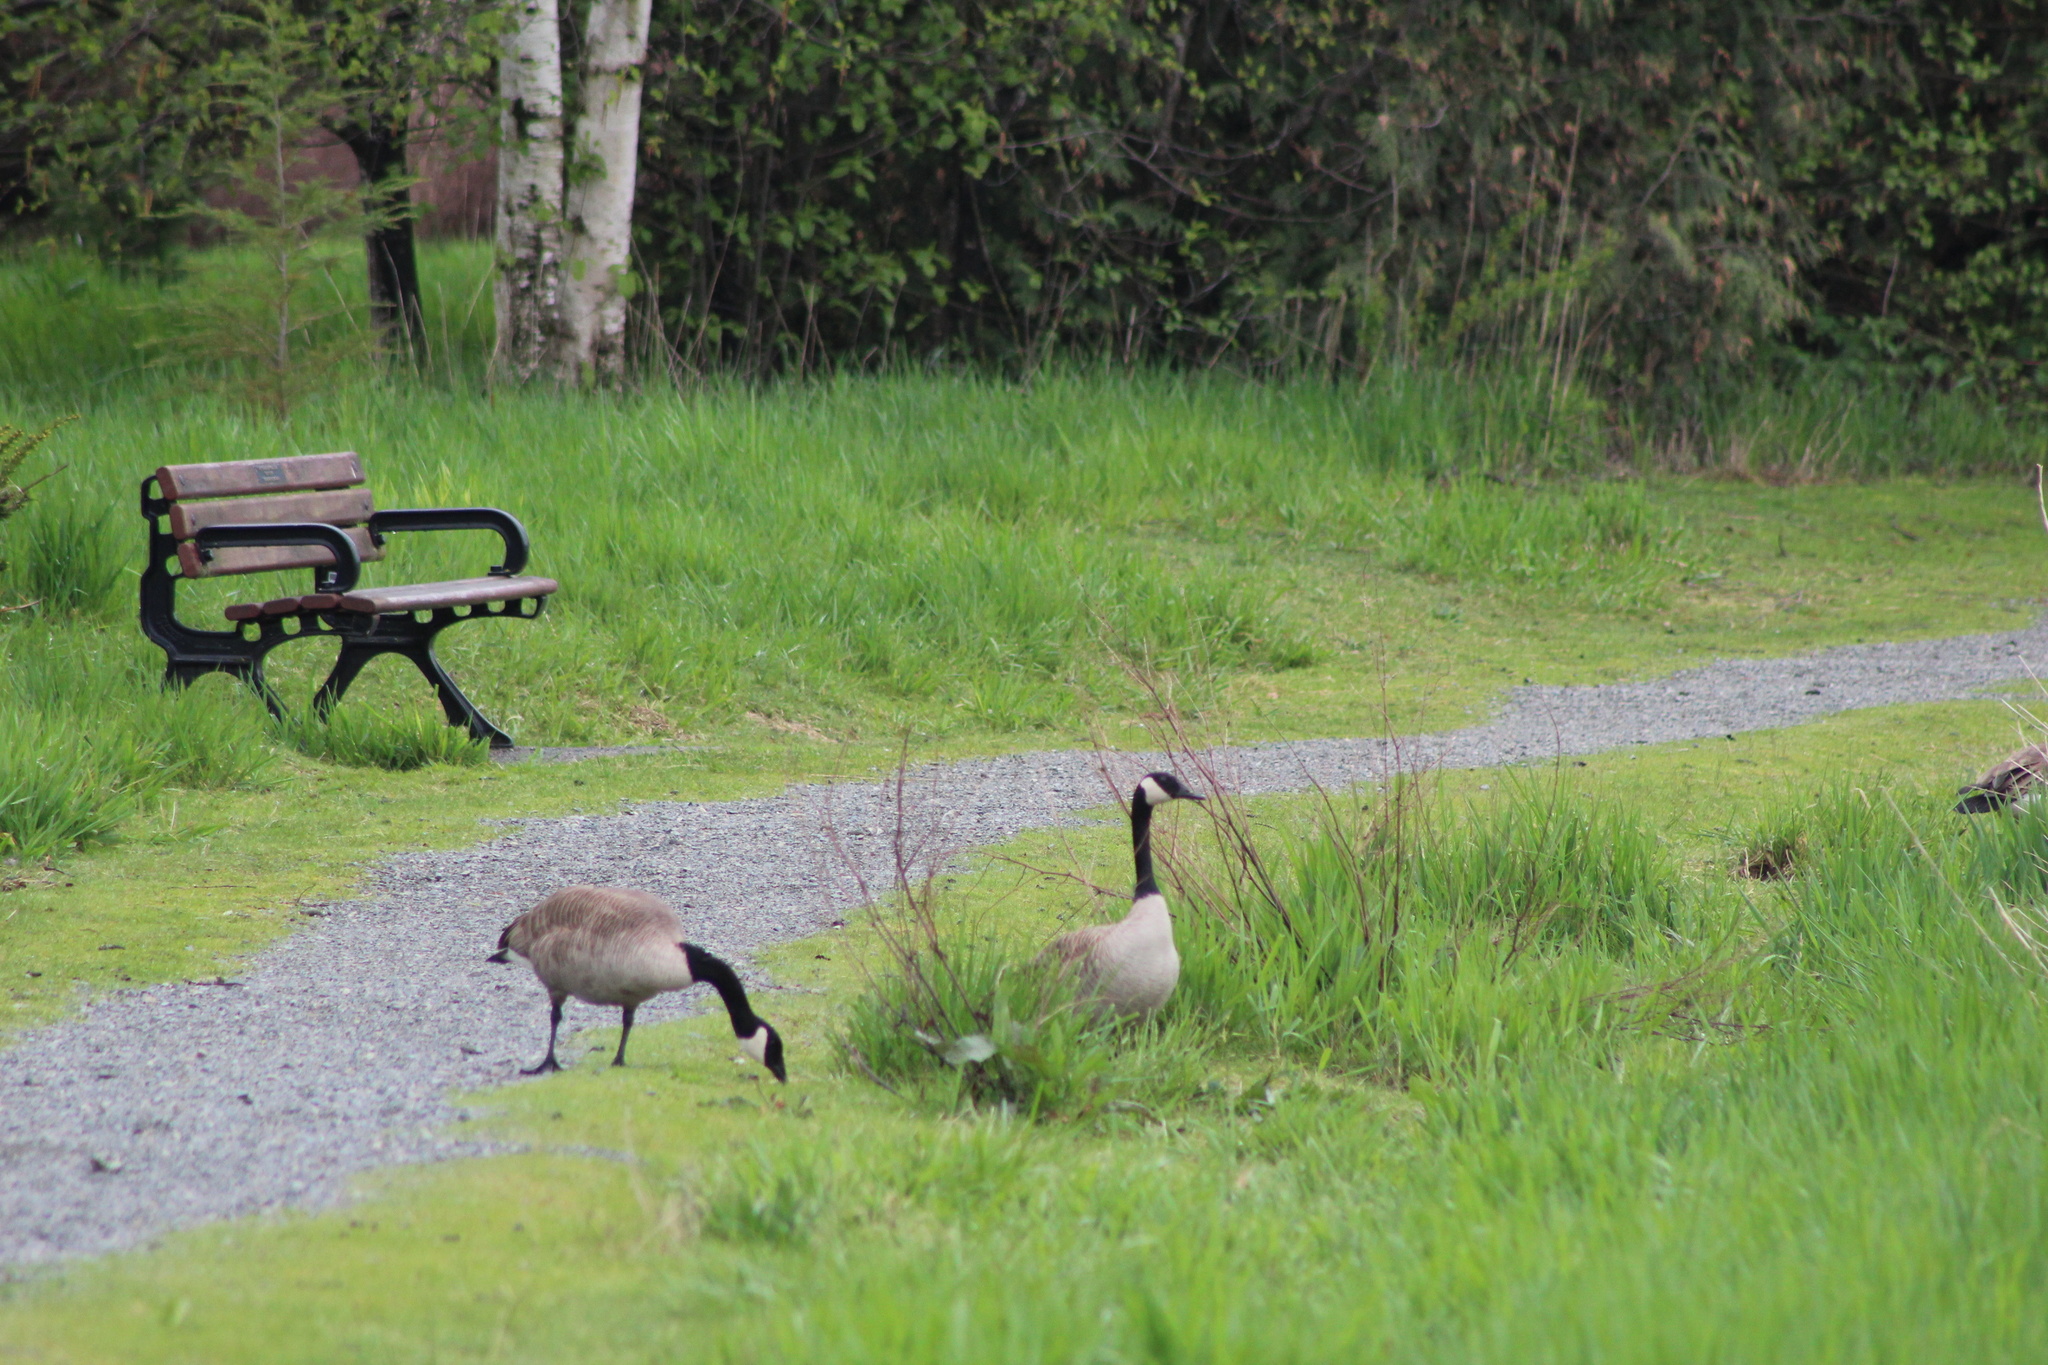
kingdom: Animalia
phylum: Chordata
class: Aves
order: Anseriformes
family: Anatidae
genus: Branta
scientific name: Branta canadensis
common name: Canada goose
